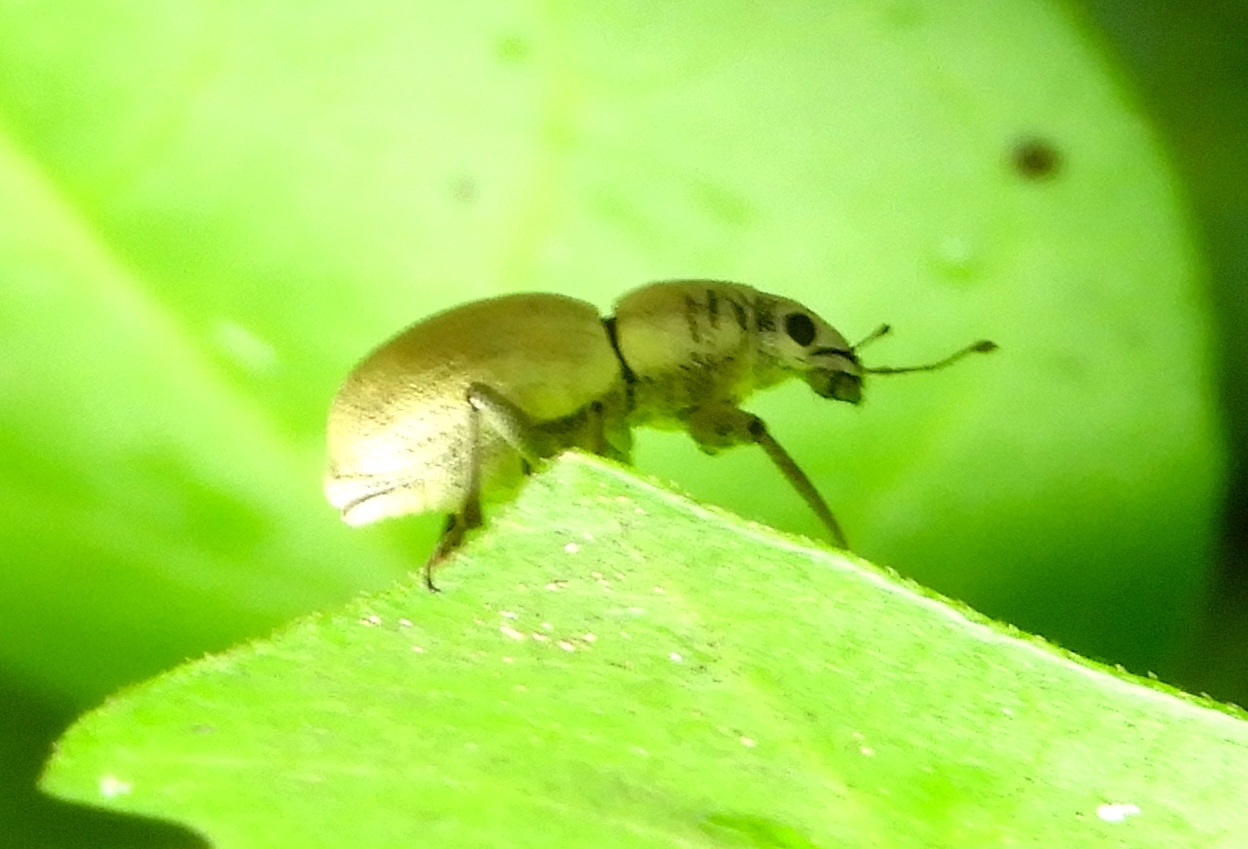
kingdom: Animalia
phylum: Arthropoda
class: Insecta
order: Coleoptera
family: Curculionidae
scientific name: Curculionidae
